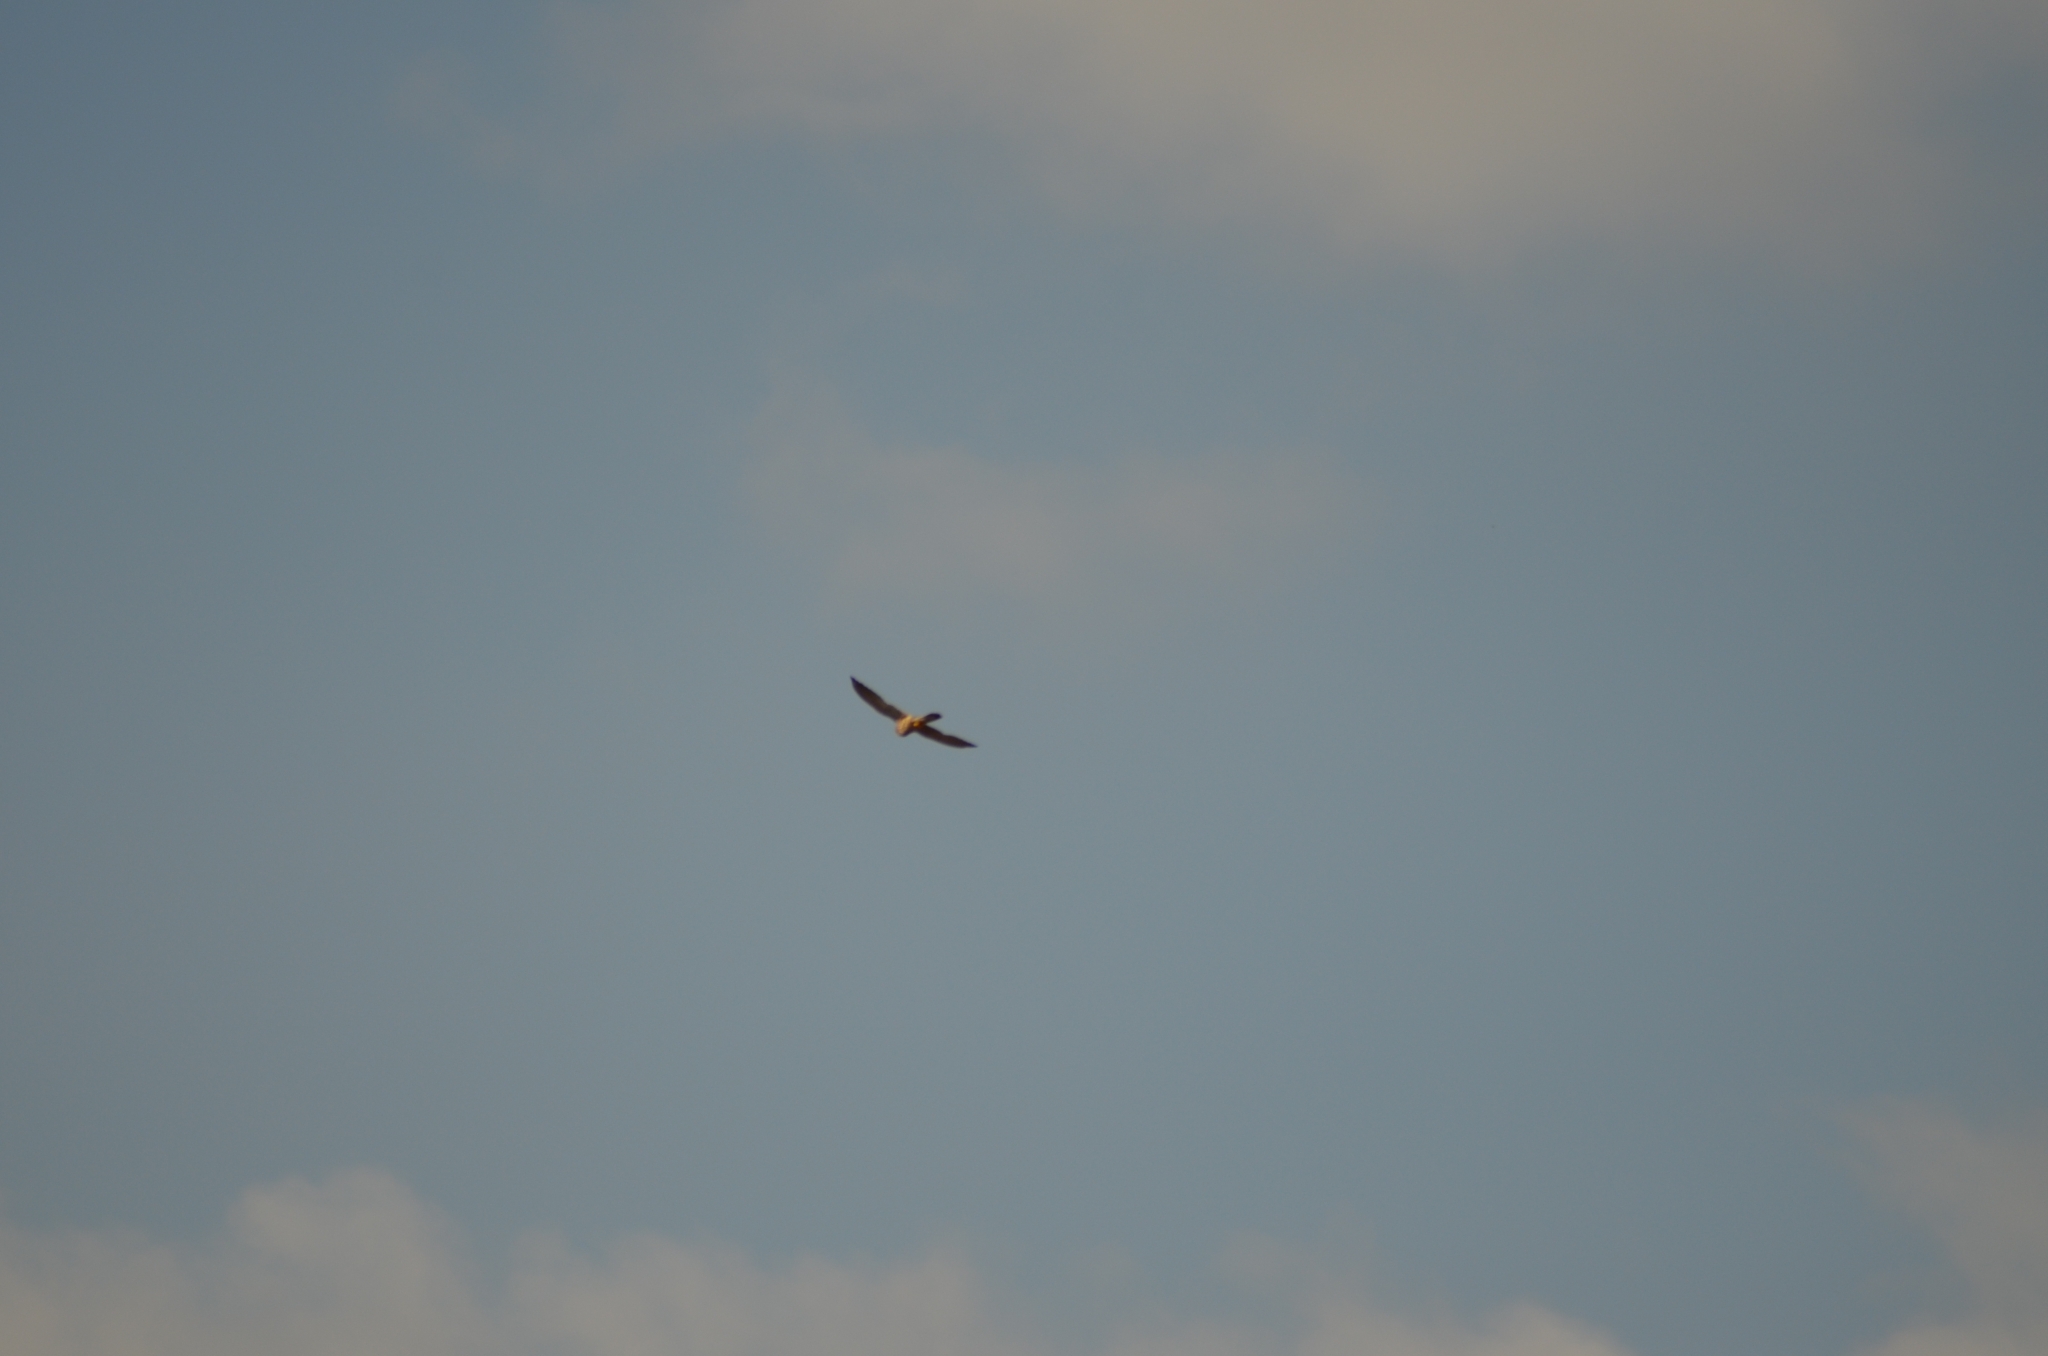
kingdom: Animalia
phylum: Chordata
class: Aves
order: Falconiformes
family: Falconidae
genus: Falco
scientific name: Falco tinnunculus
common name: Common kestrel
